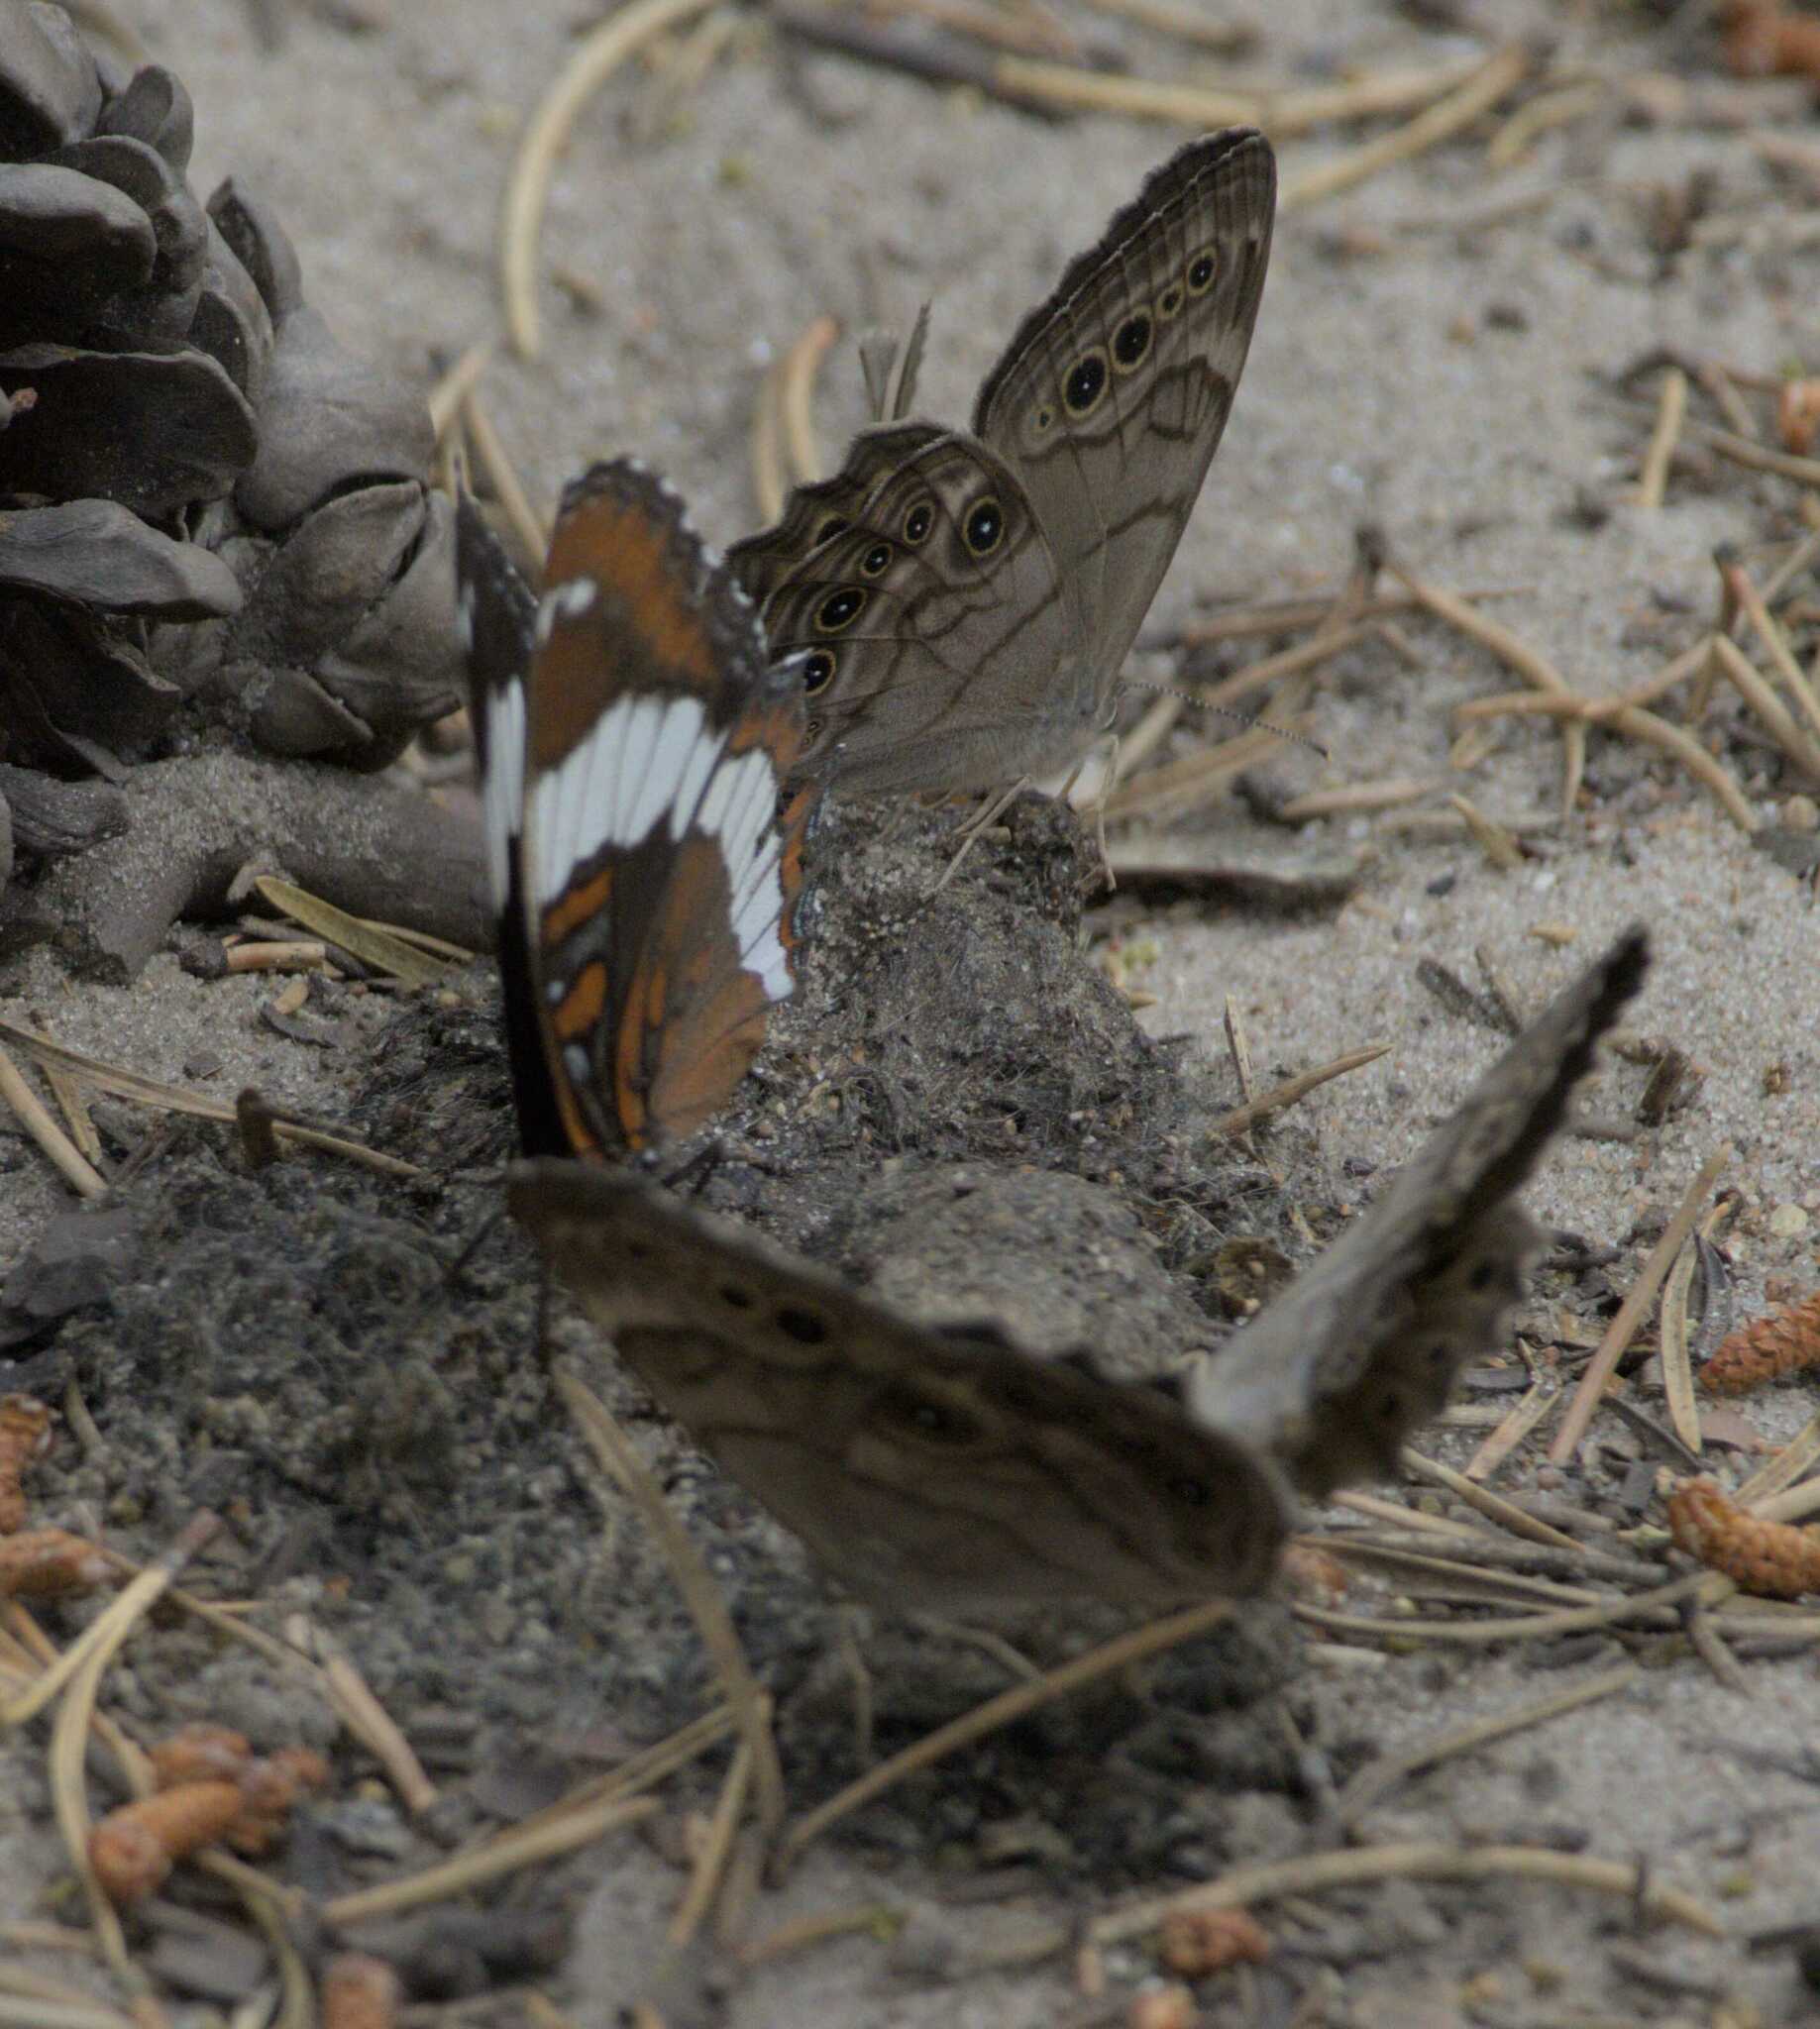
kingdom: Animalia
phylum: Arthropoda
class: Insecta
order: Lepidoptera
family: Nymphalidae
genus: Limenitis
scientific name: Limenitis arthemis
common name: Red-spotted admiral
